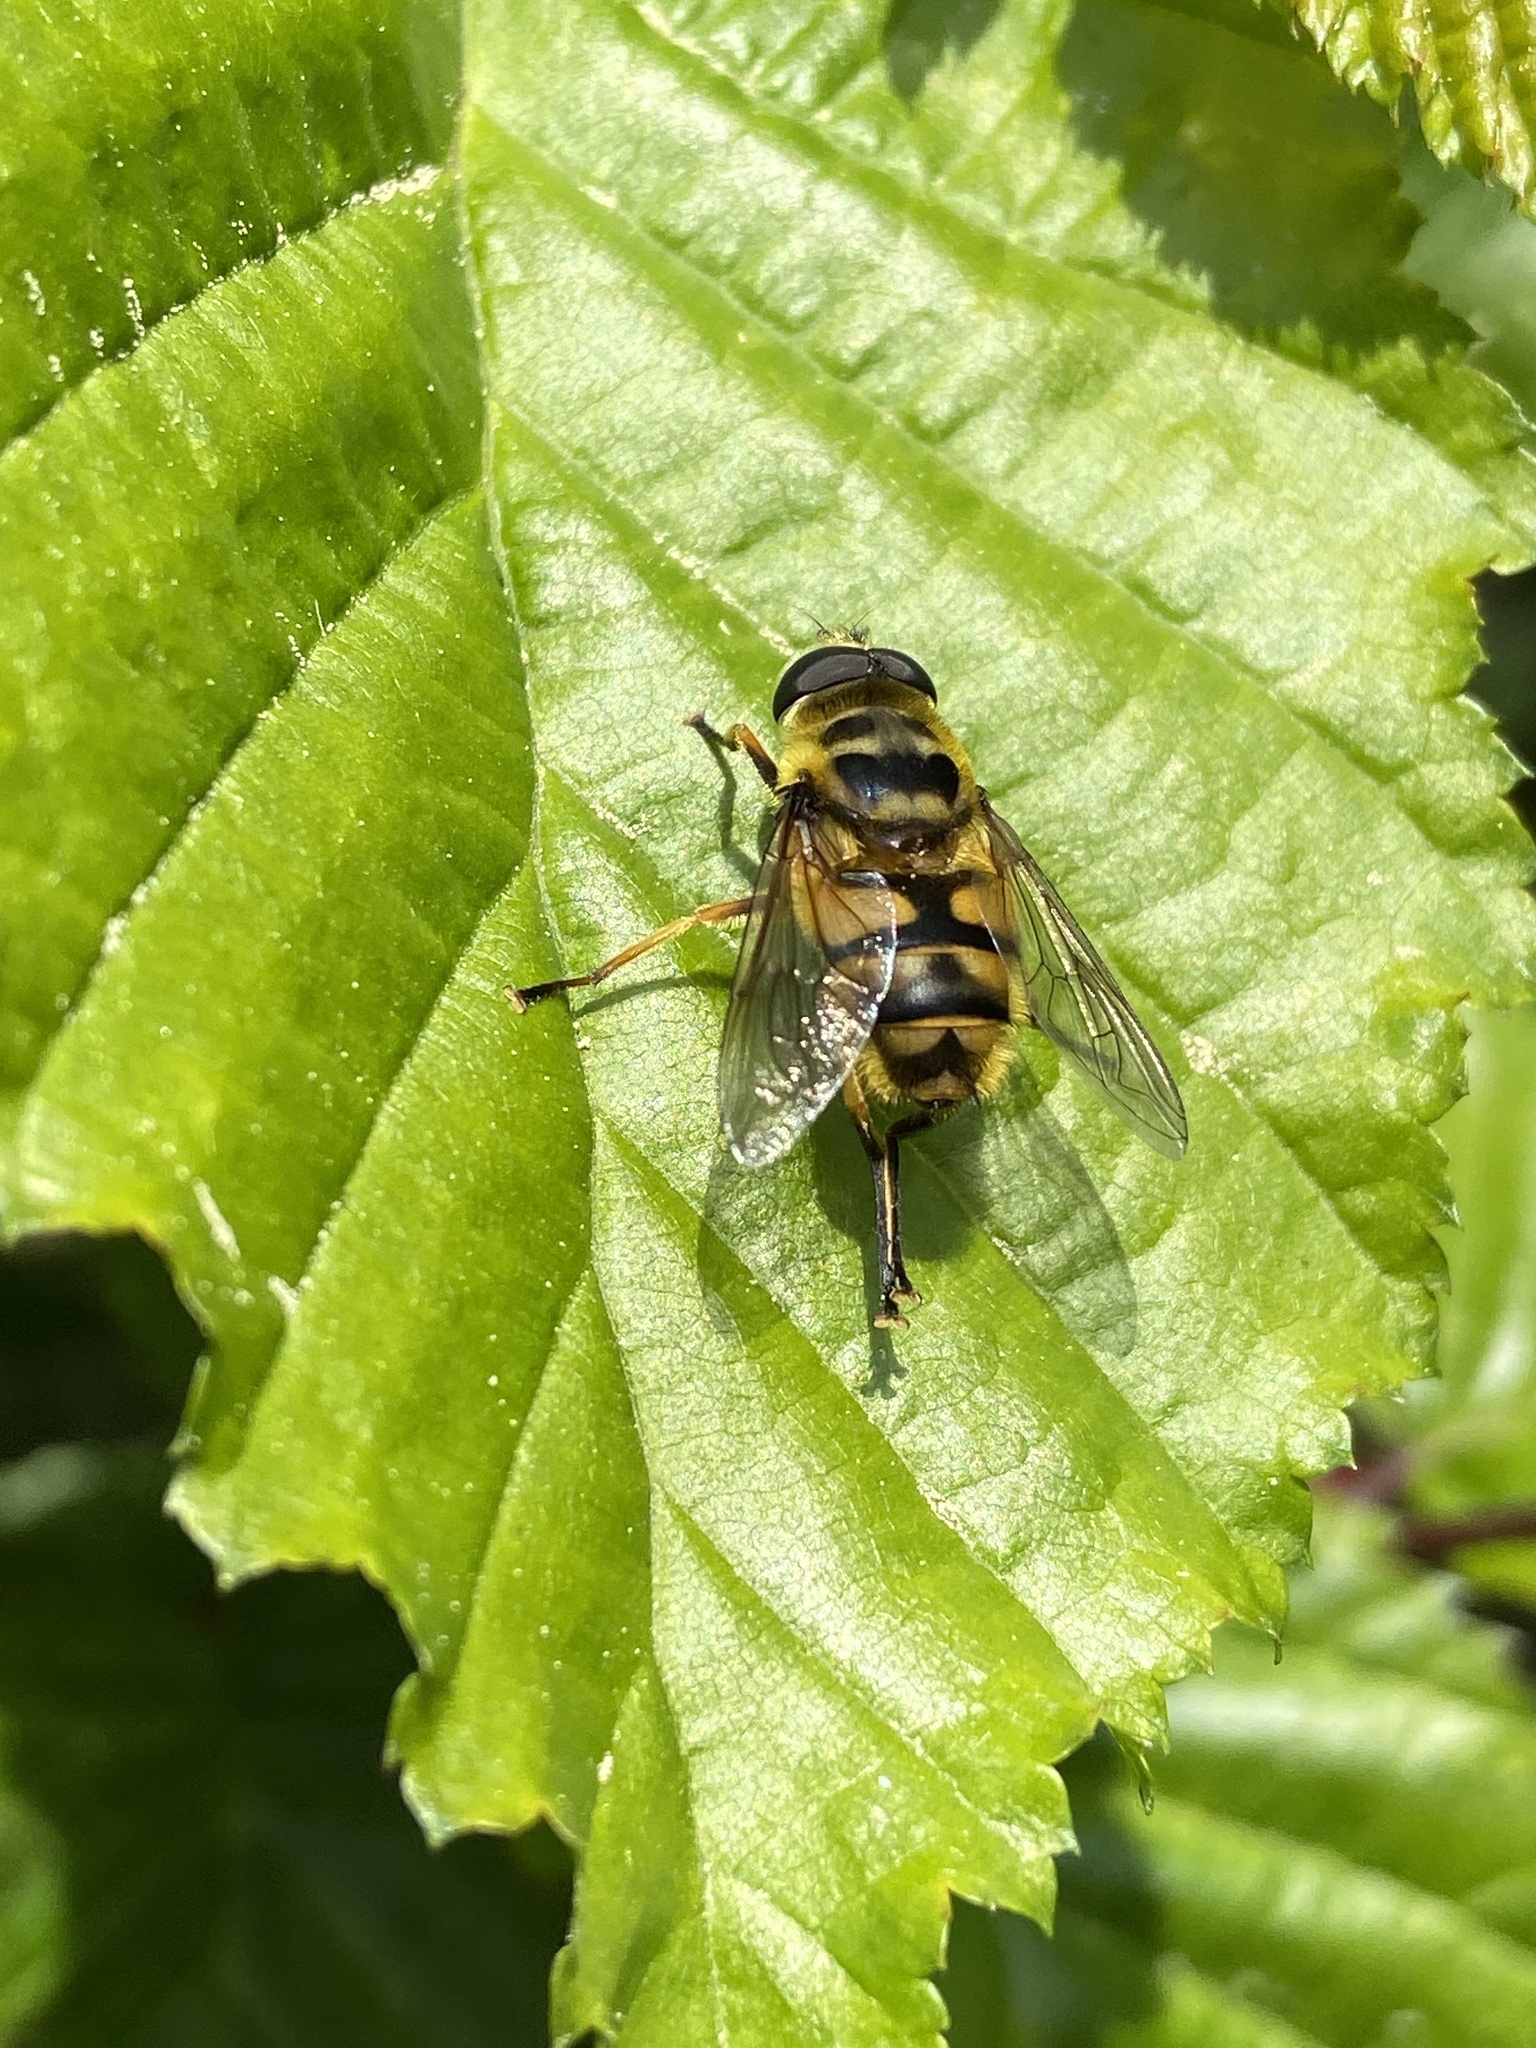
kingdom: Animalia
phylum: Arthropoda
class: Insecta
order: Diptera
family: Syrphidae
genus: Myathropa
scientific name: Myathropa florea
